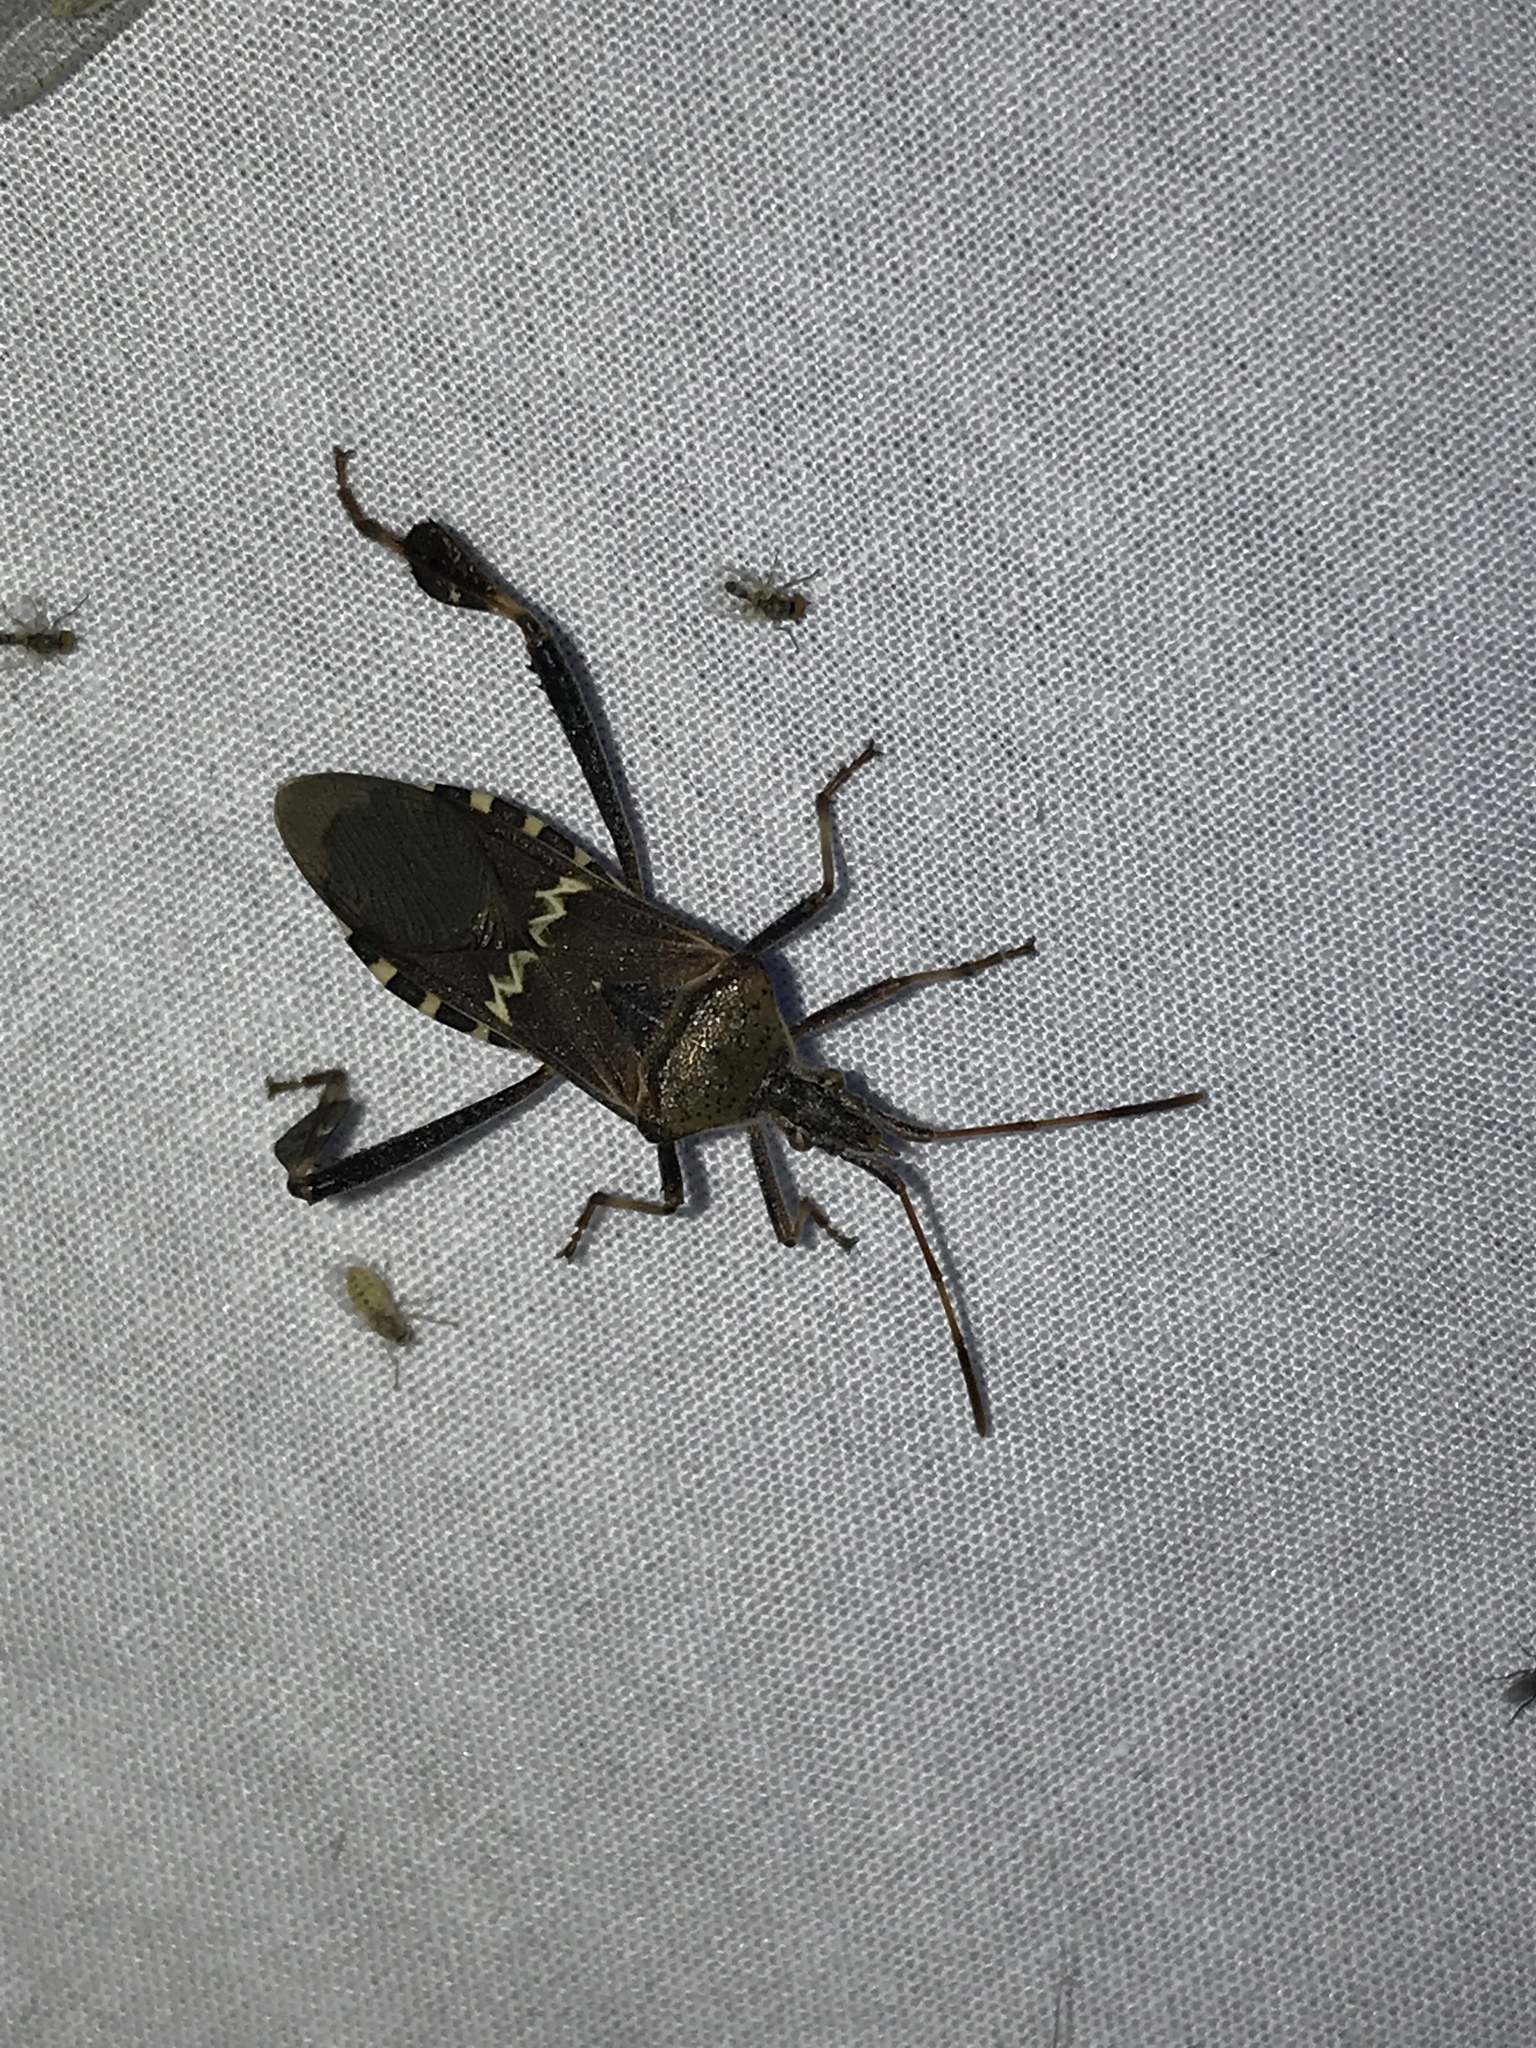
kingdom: Animalia
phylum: Arthropoda
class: Insecta
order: Hemiptera
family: Coreidae
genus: Leptoglossus
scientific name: Leptoglossus clypealis
